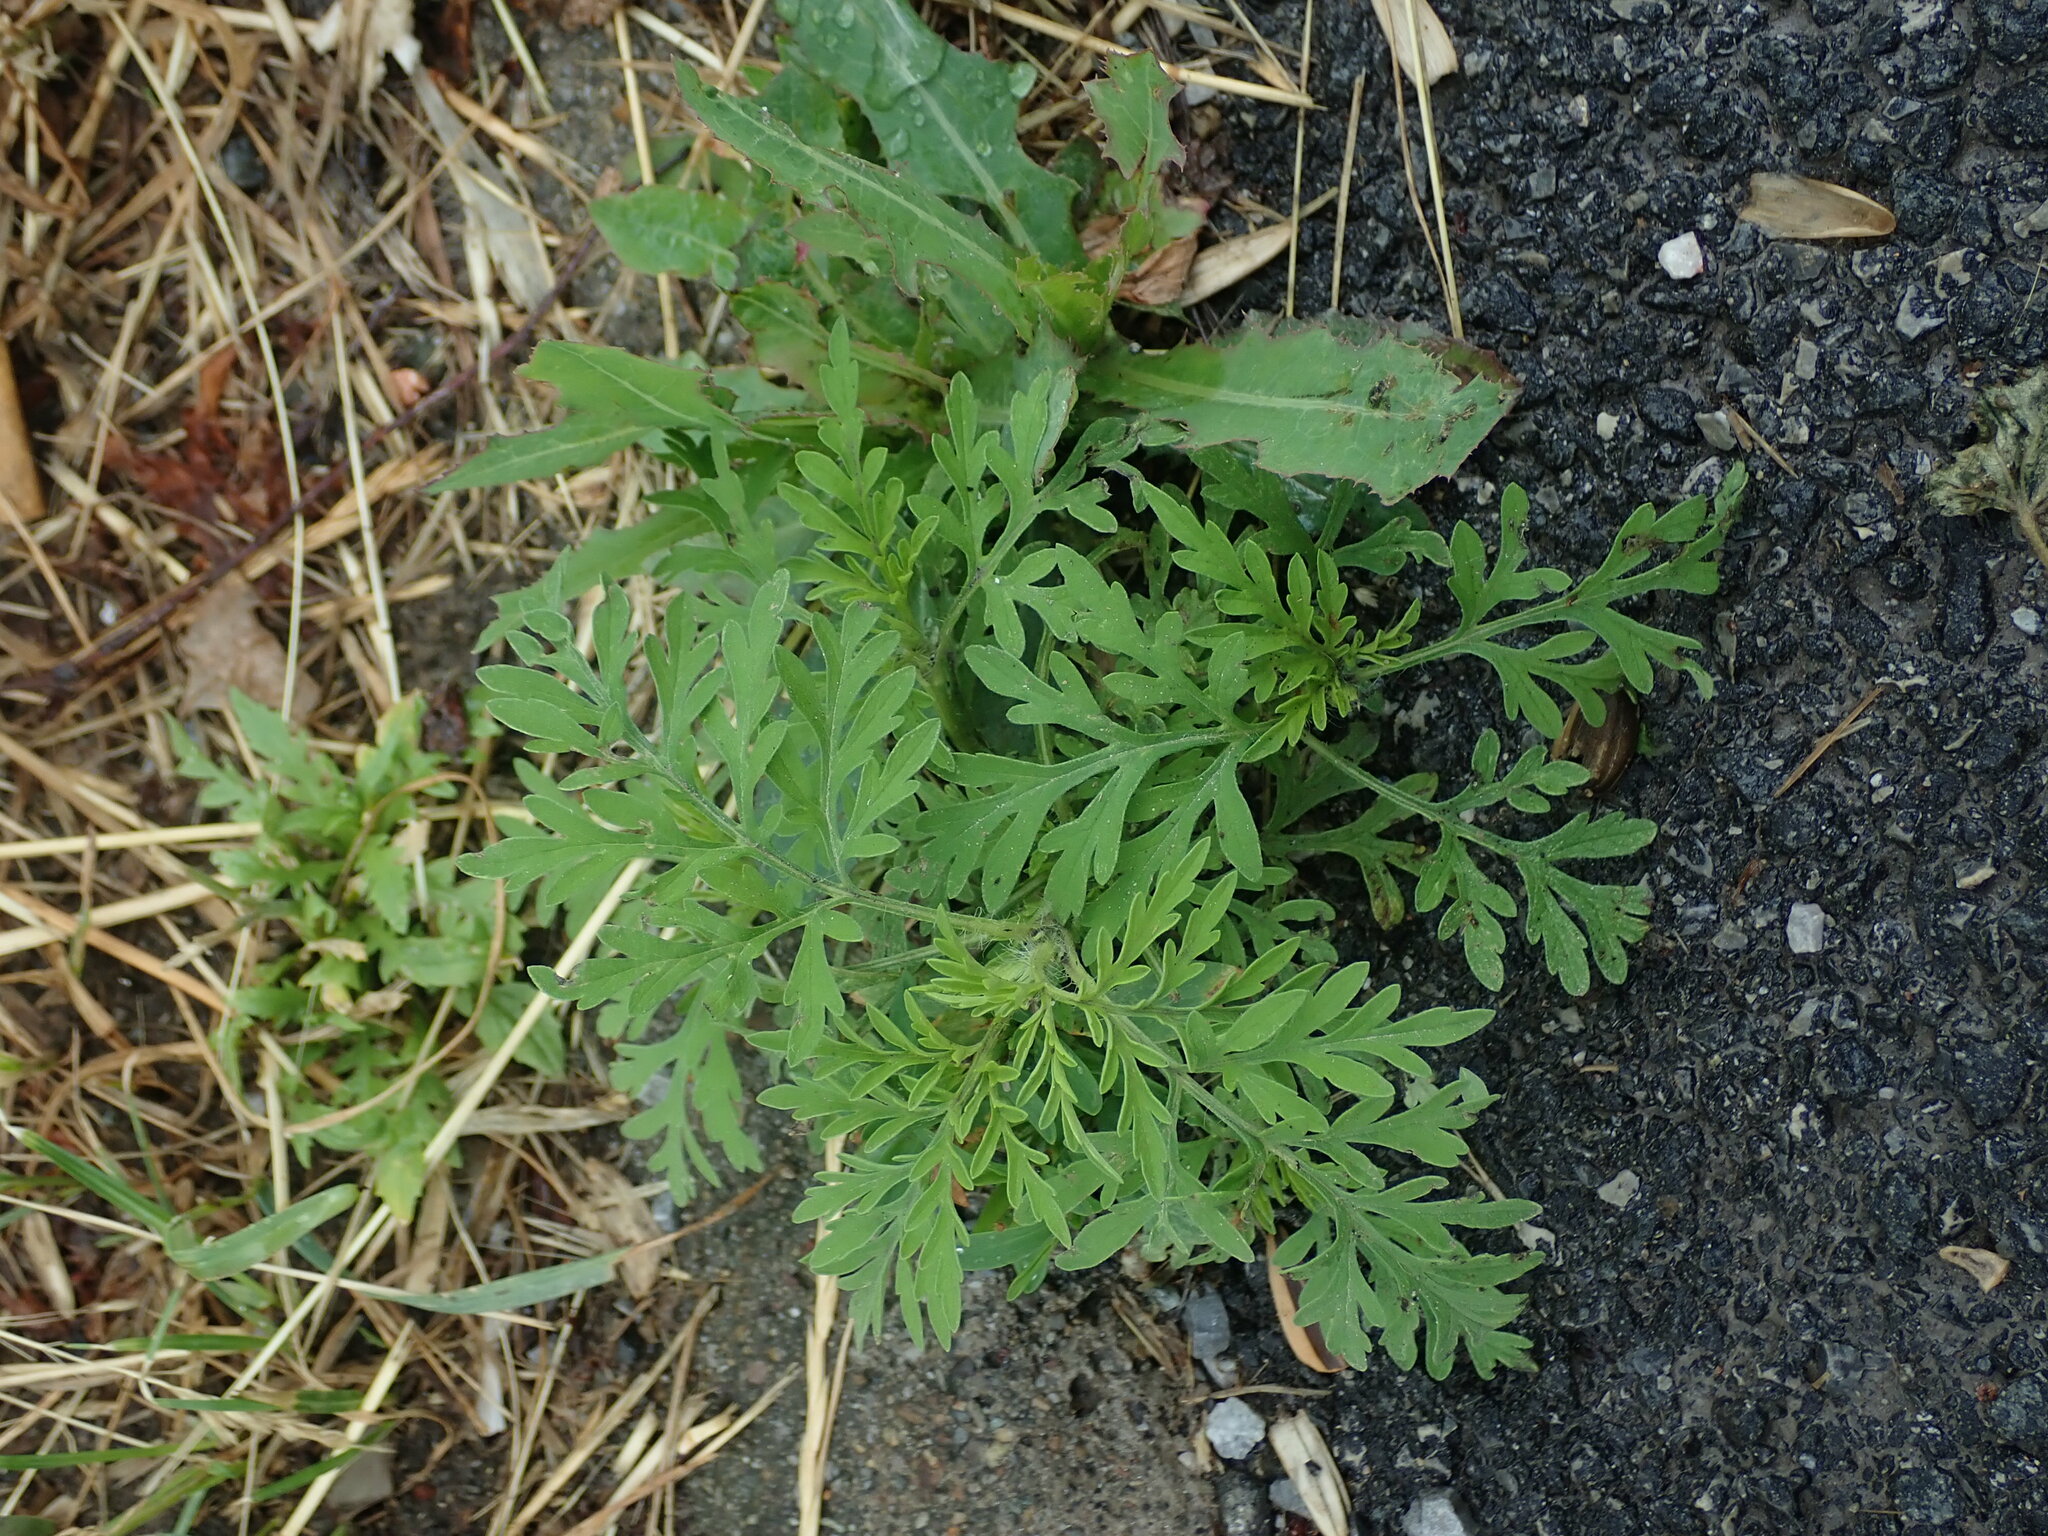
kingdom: Plantae
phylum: Tracheophyta
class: Magnoliopsida
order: Asterales
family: Asteraceae
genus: Ambrosia
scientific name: Ambrosia artemisiifolia
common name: Annual ragweed
